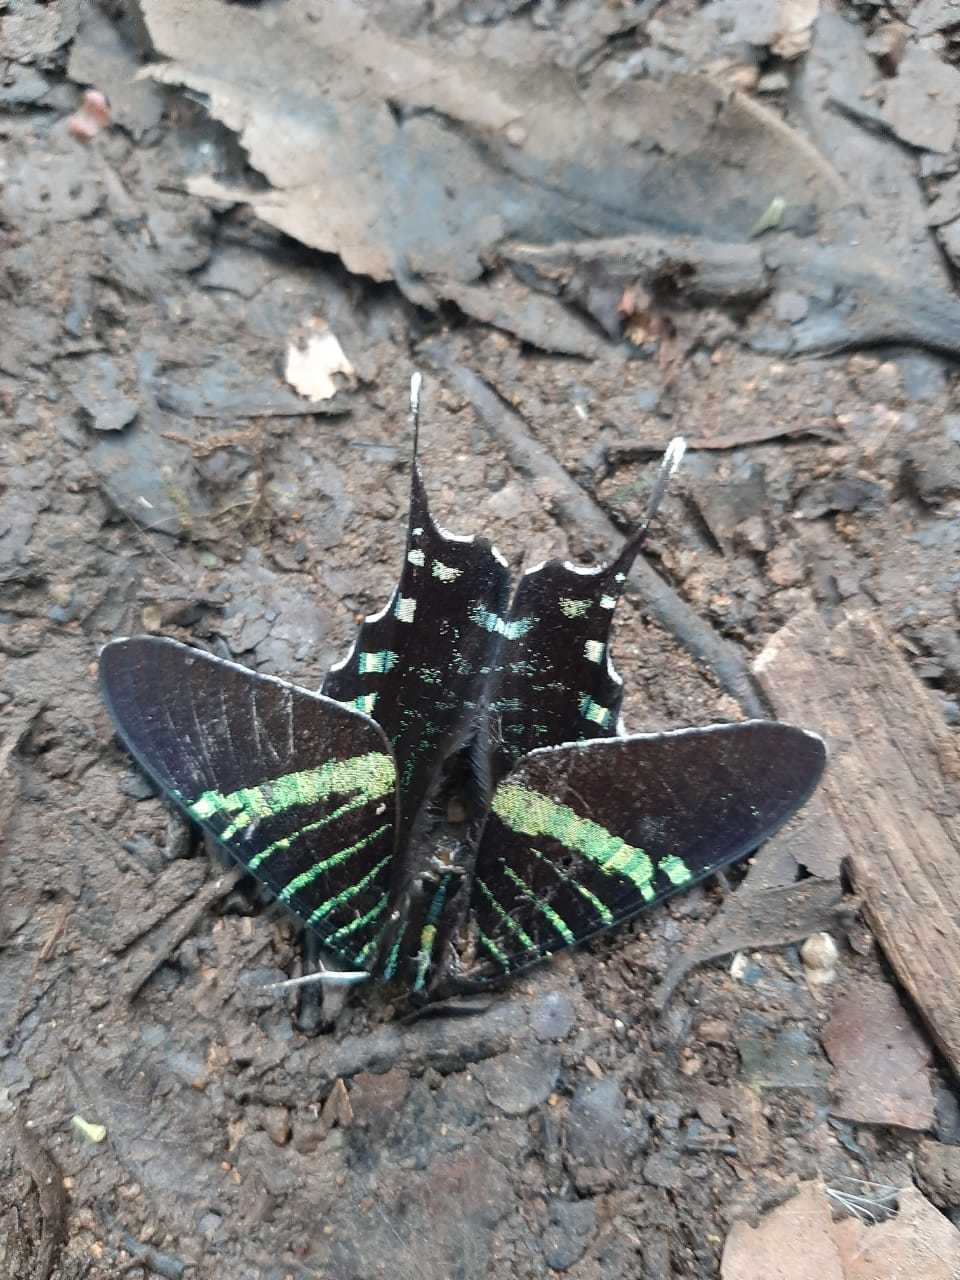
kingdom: Animalia
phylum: Arthropoda
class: Insecta
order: Lepidoptera
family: Uraniidae
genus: Urania
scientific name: Urania fulgens
